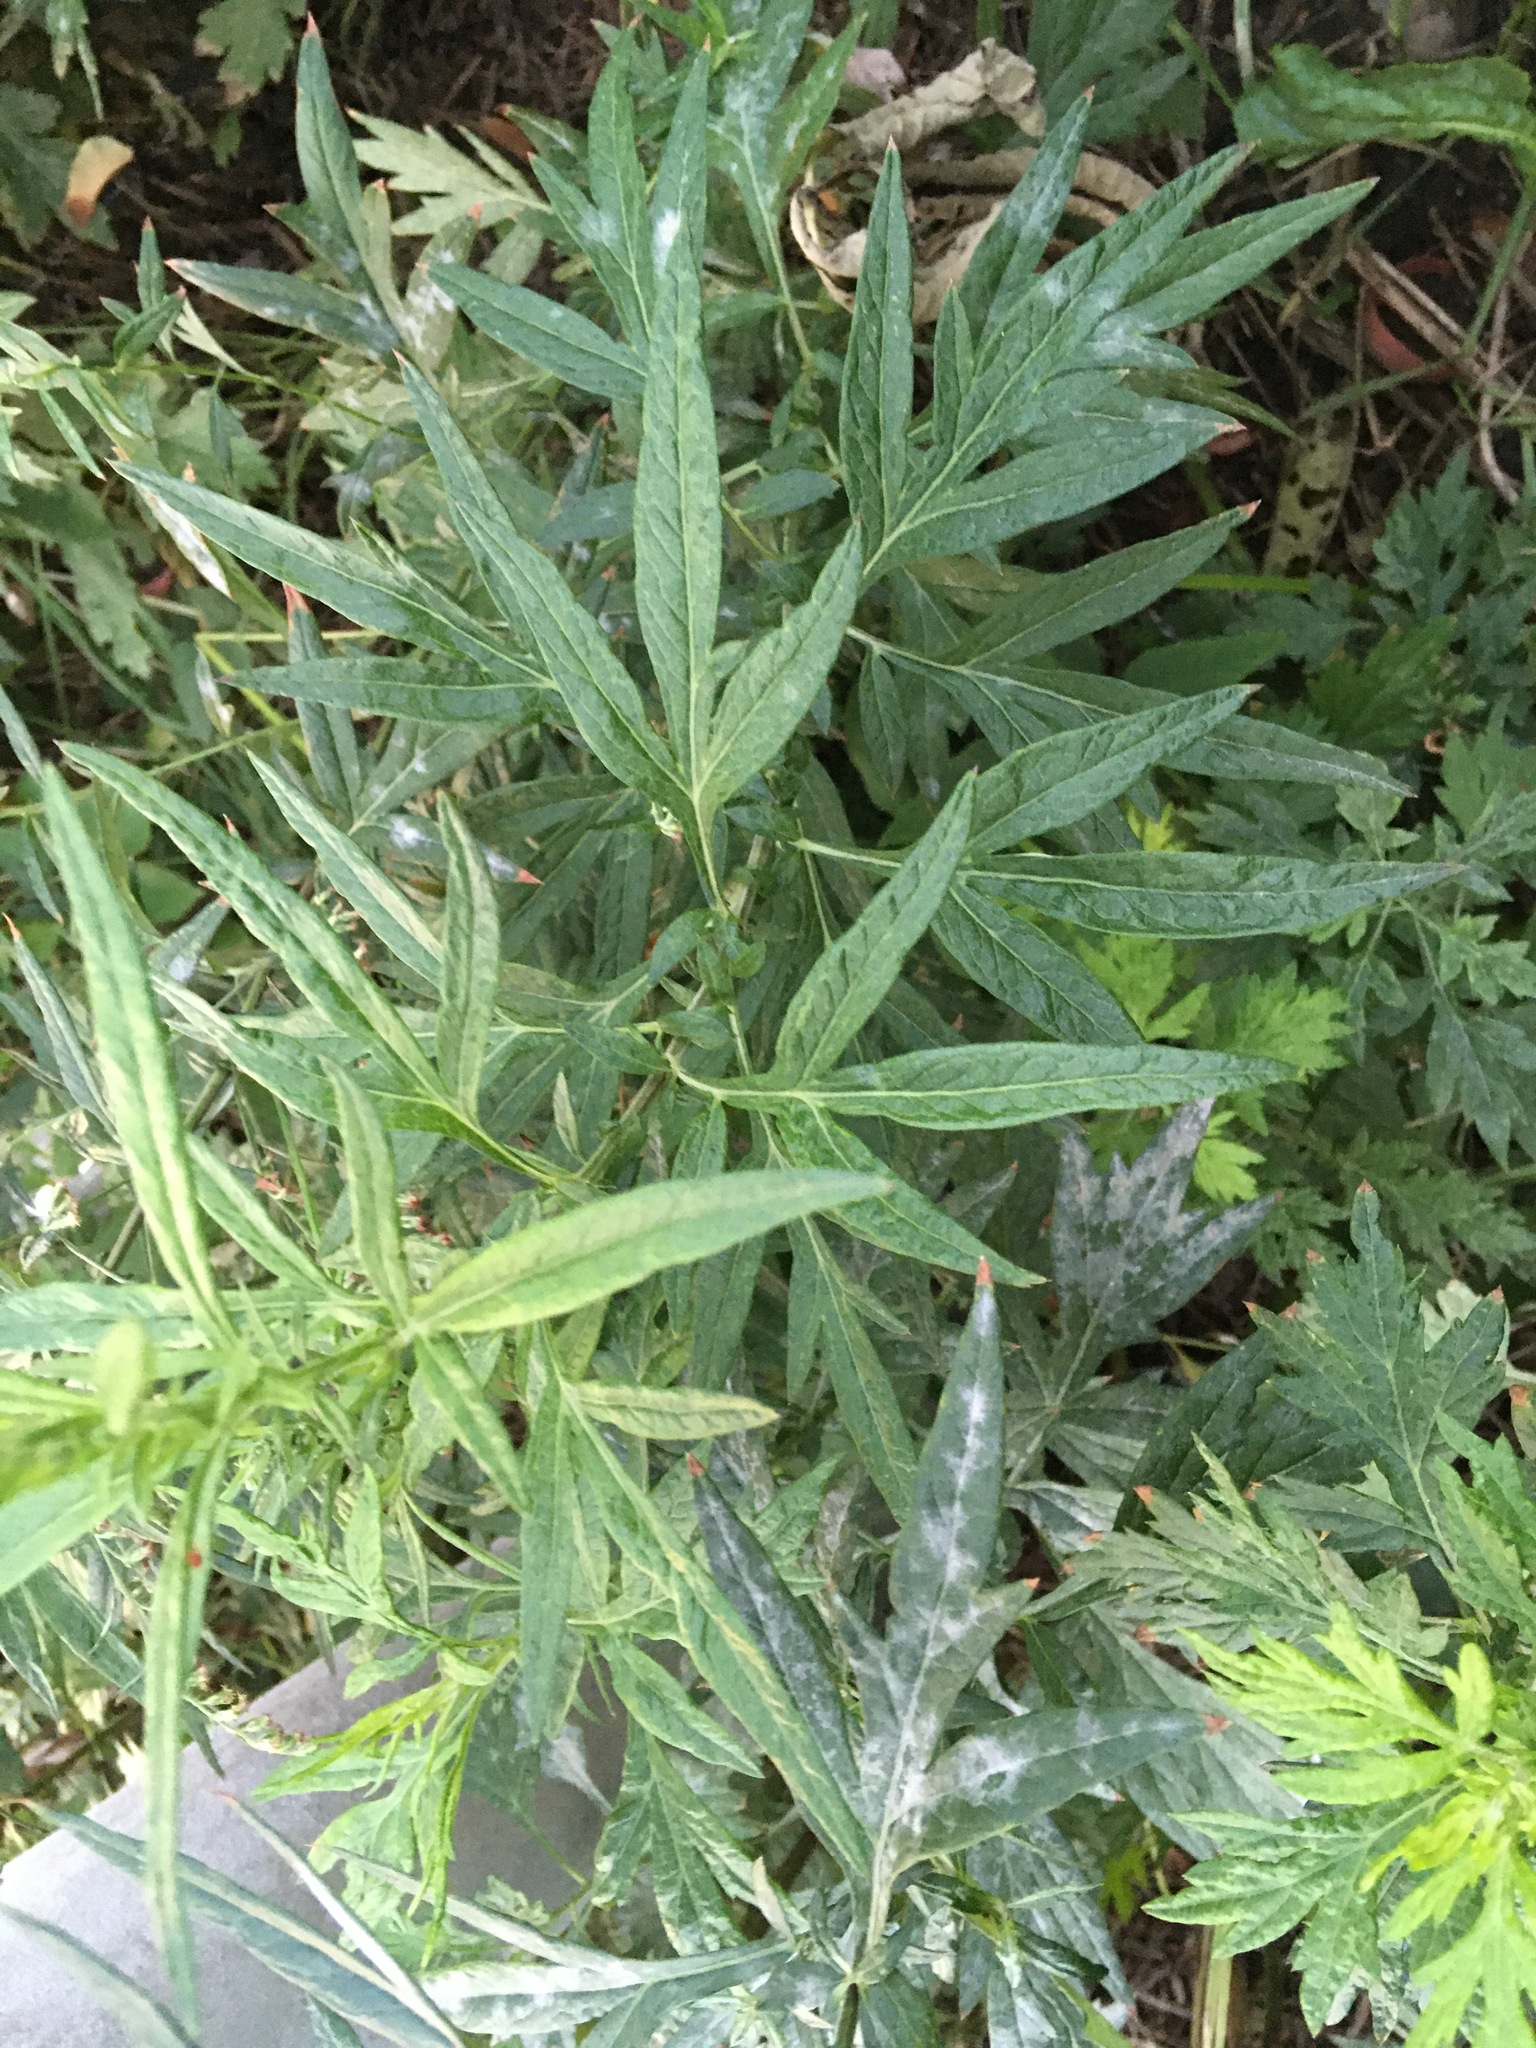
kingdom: Plantae
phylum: Tracheophyta
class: Magnoliopsida
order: Asterales
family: Asteraceae
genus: Artemisia
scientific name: Artemisia vulgaris
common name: Mugwort
